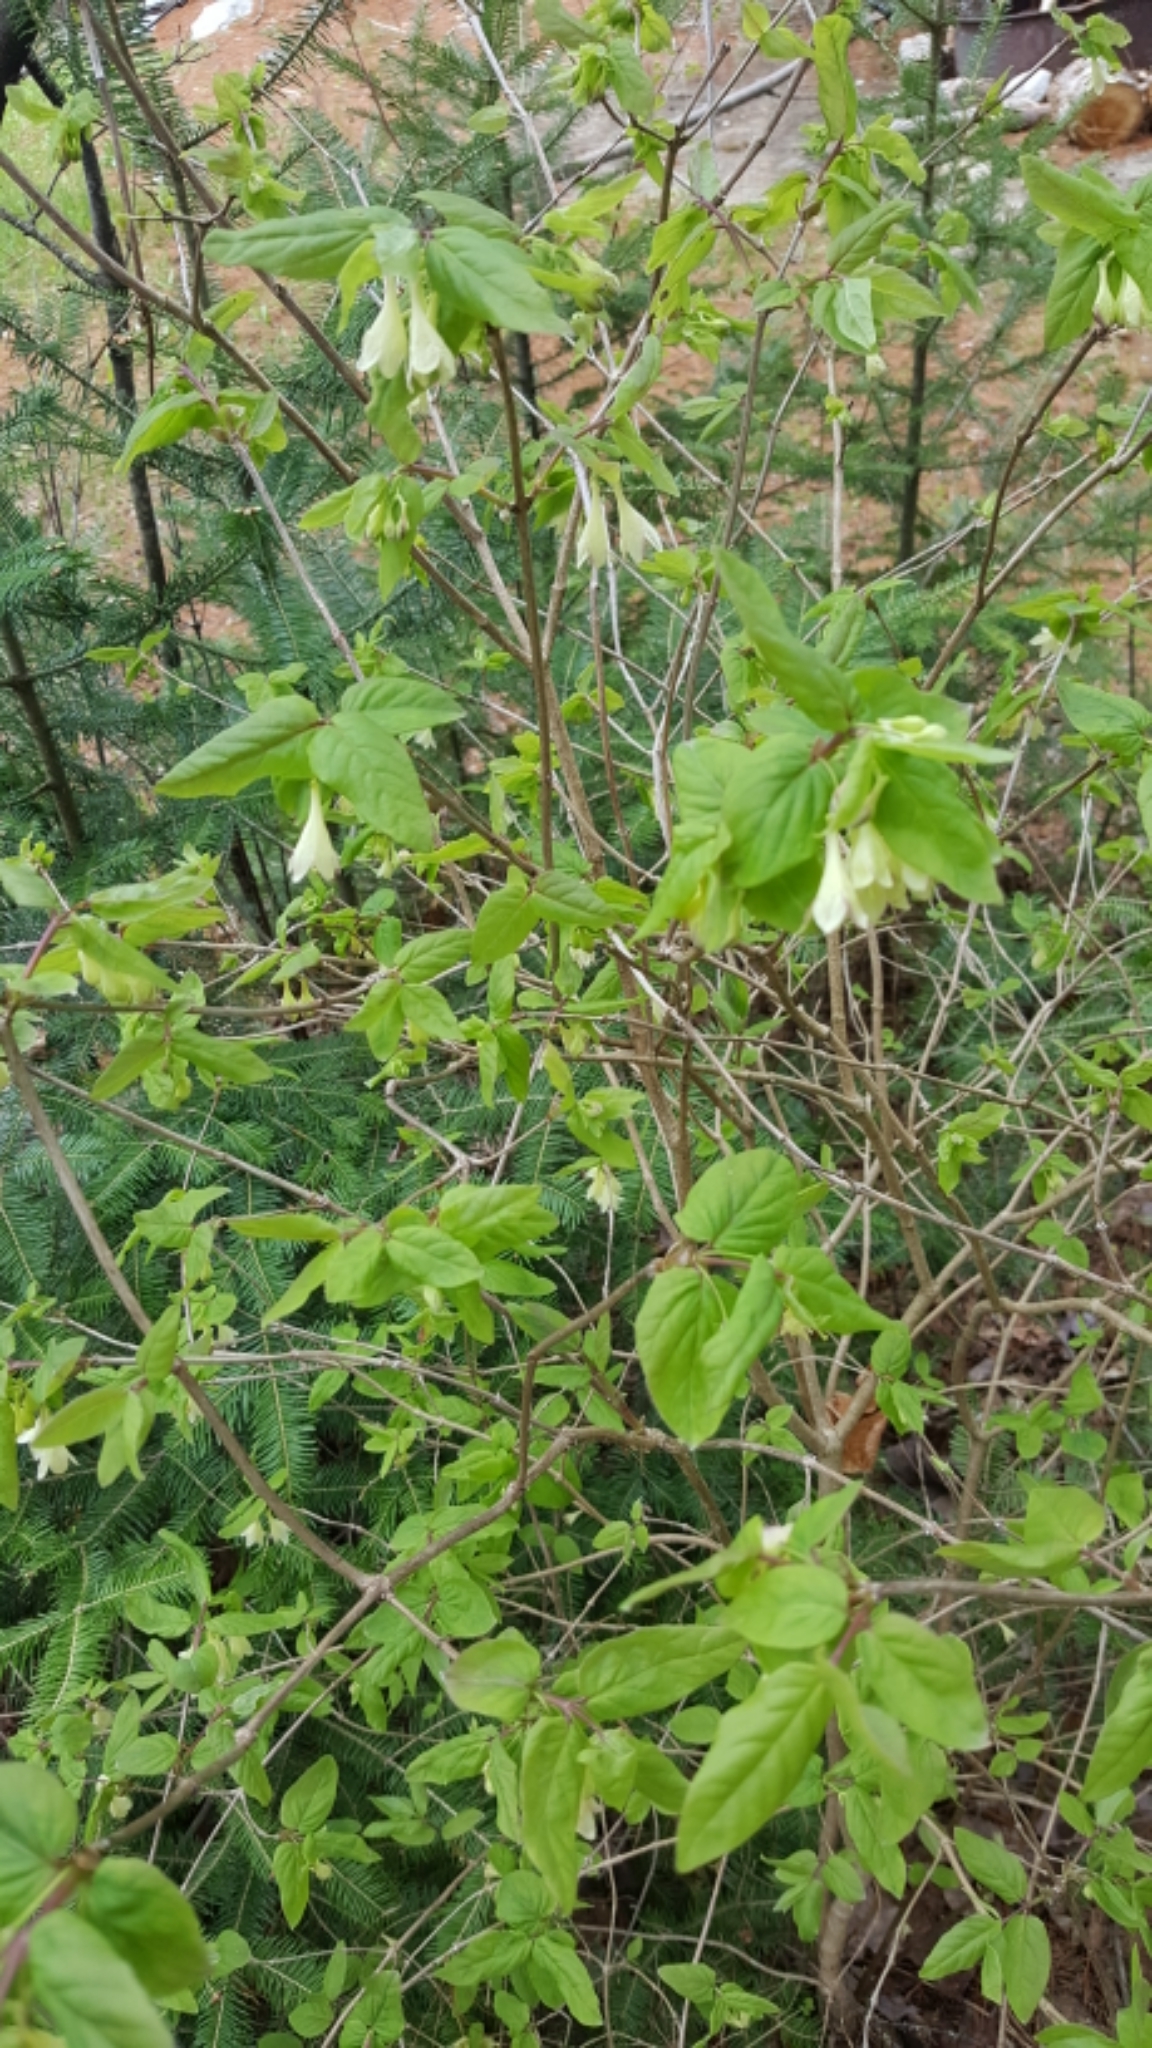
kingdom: Plantae
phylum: Tracheophyta
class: Magnoliopsida
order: Dipsacales
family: Caprifoliaceae
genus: Lonicera
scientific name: Lonicera canadensis
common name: American fly-honeysuckle
